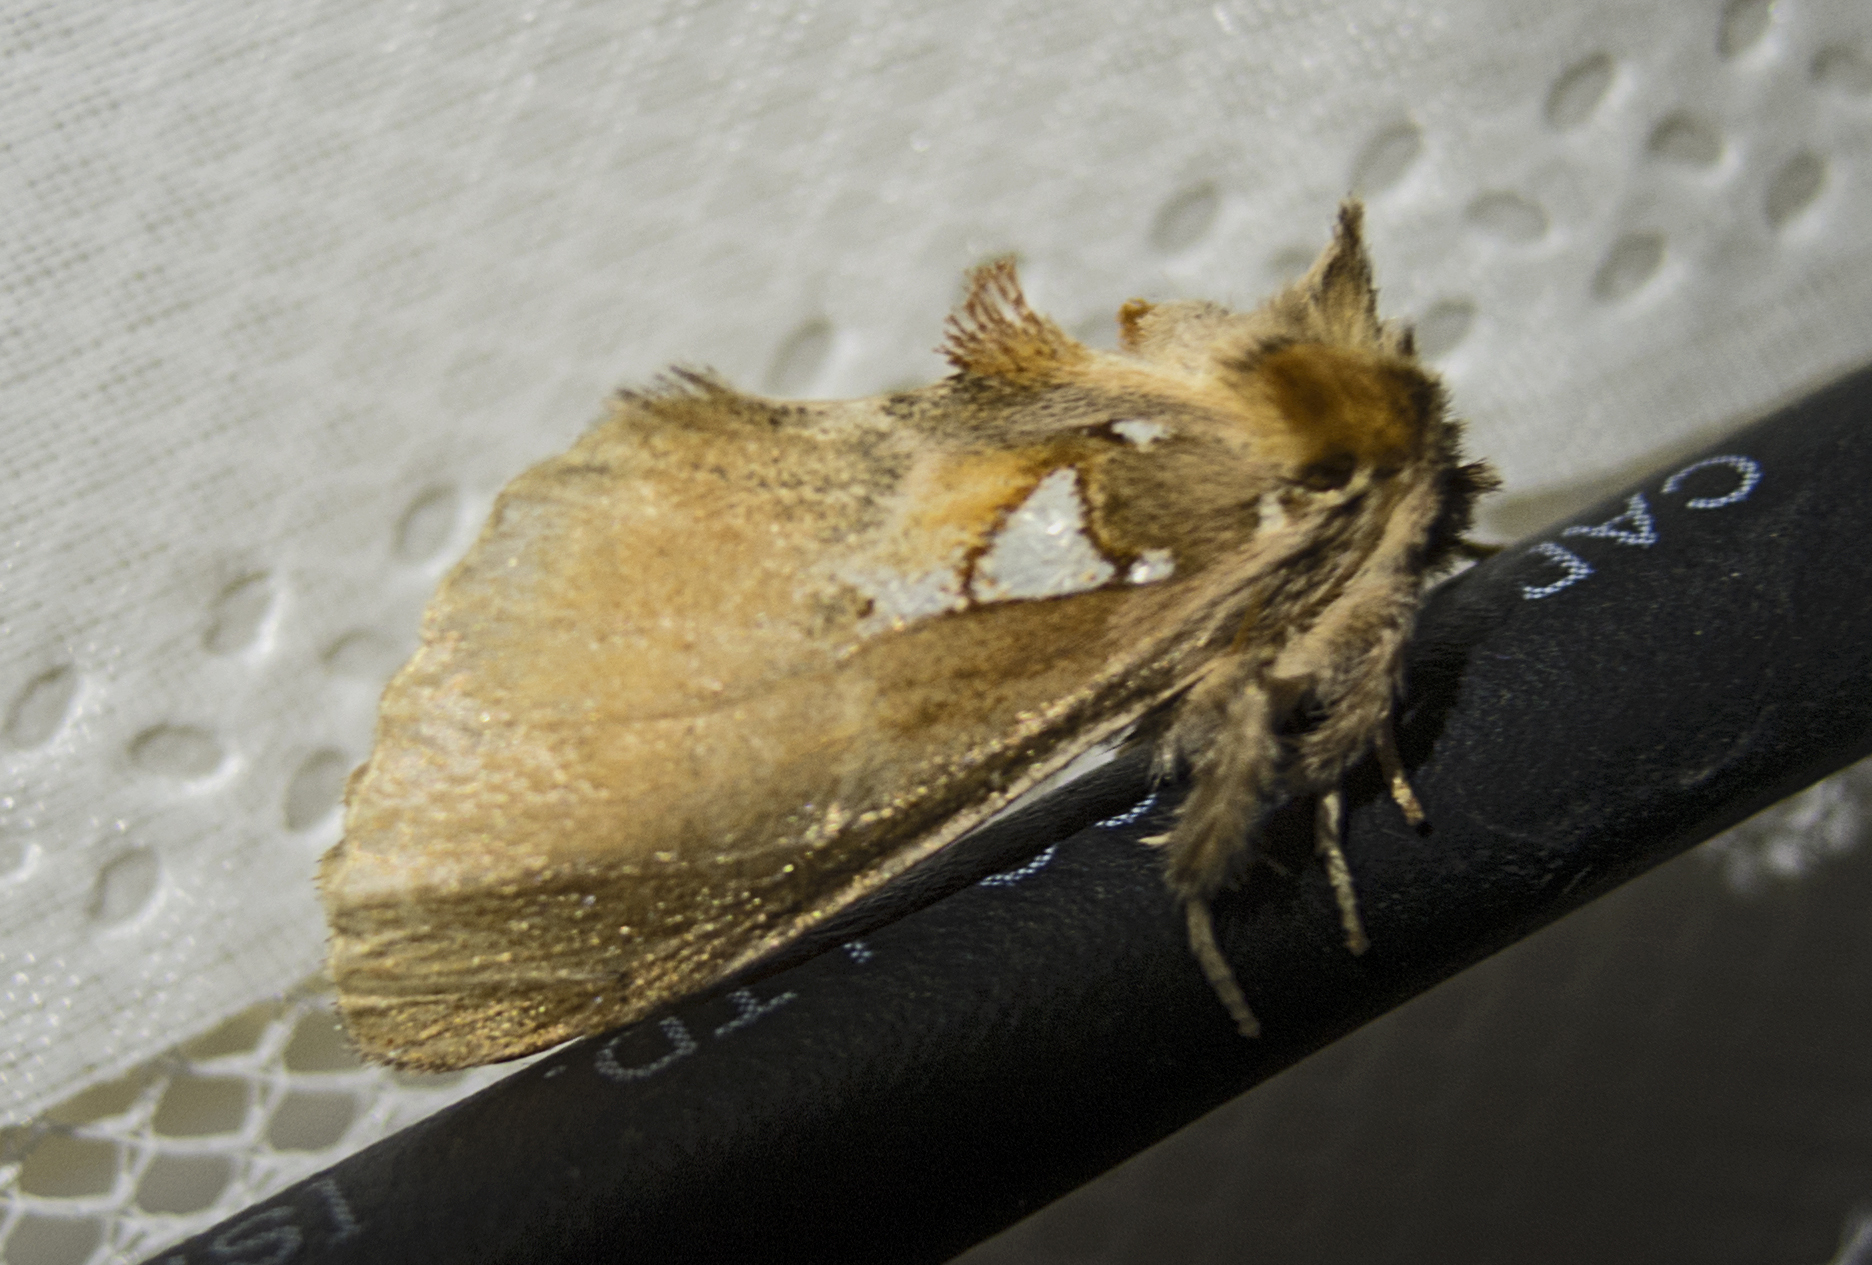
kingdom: Animalia
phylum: Arthropoda
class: Insecta
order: Lepidoptera
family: Notodontidae
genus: Spatalia
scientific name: Spatalia argentina
